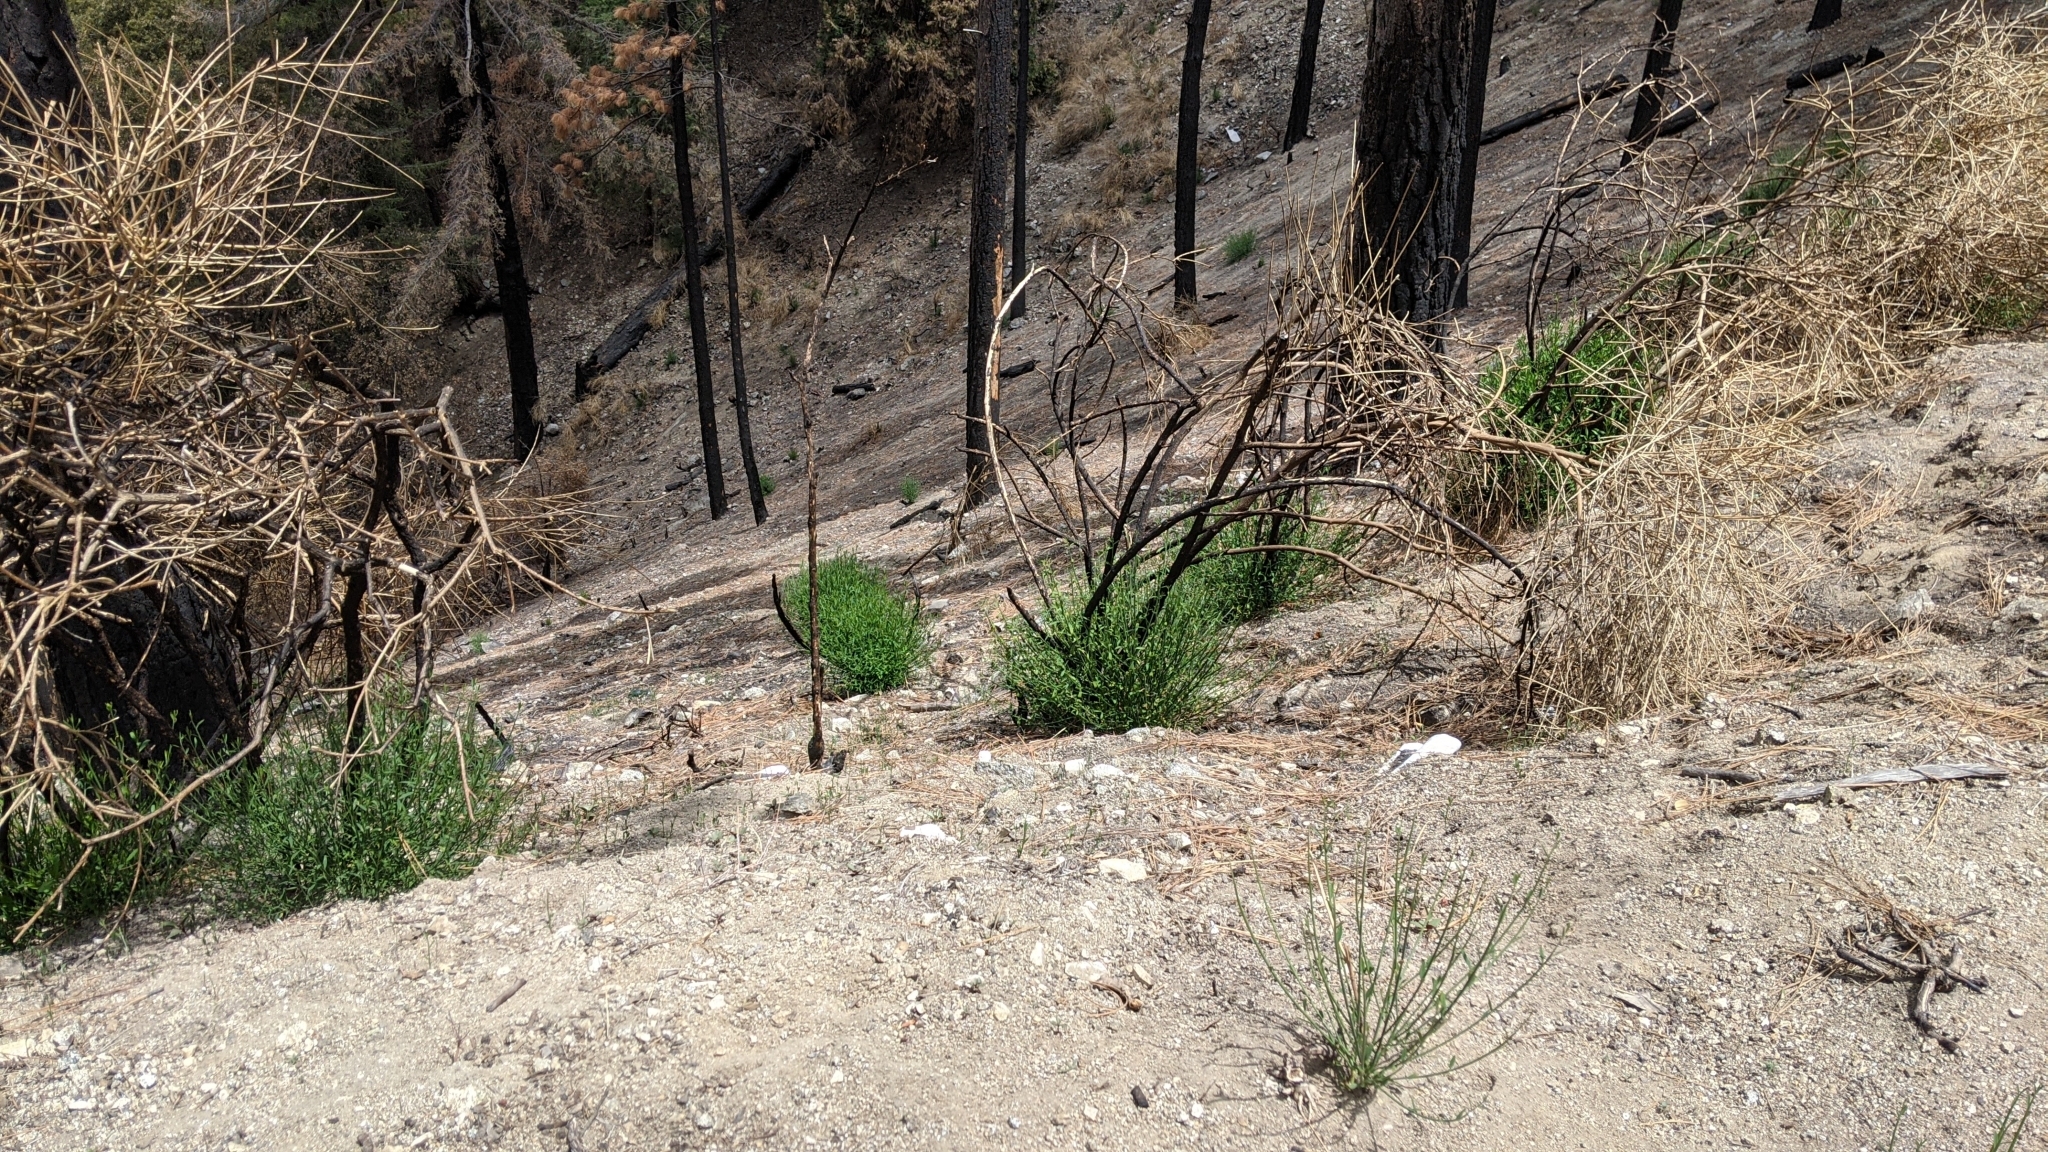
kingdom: Plantae
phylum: Tracheophyta
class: Magnoliopsida
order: Fabales
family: Fabaceae
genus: Spartium
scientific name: Spartium junceum
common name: Spanish broom
